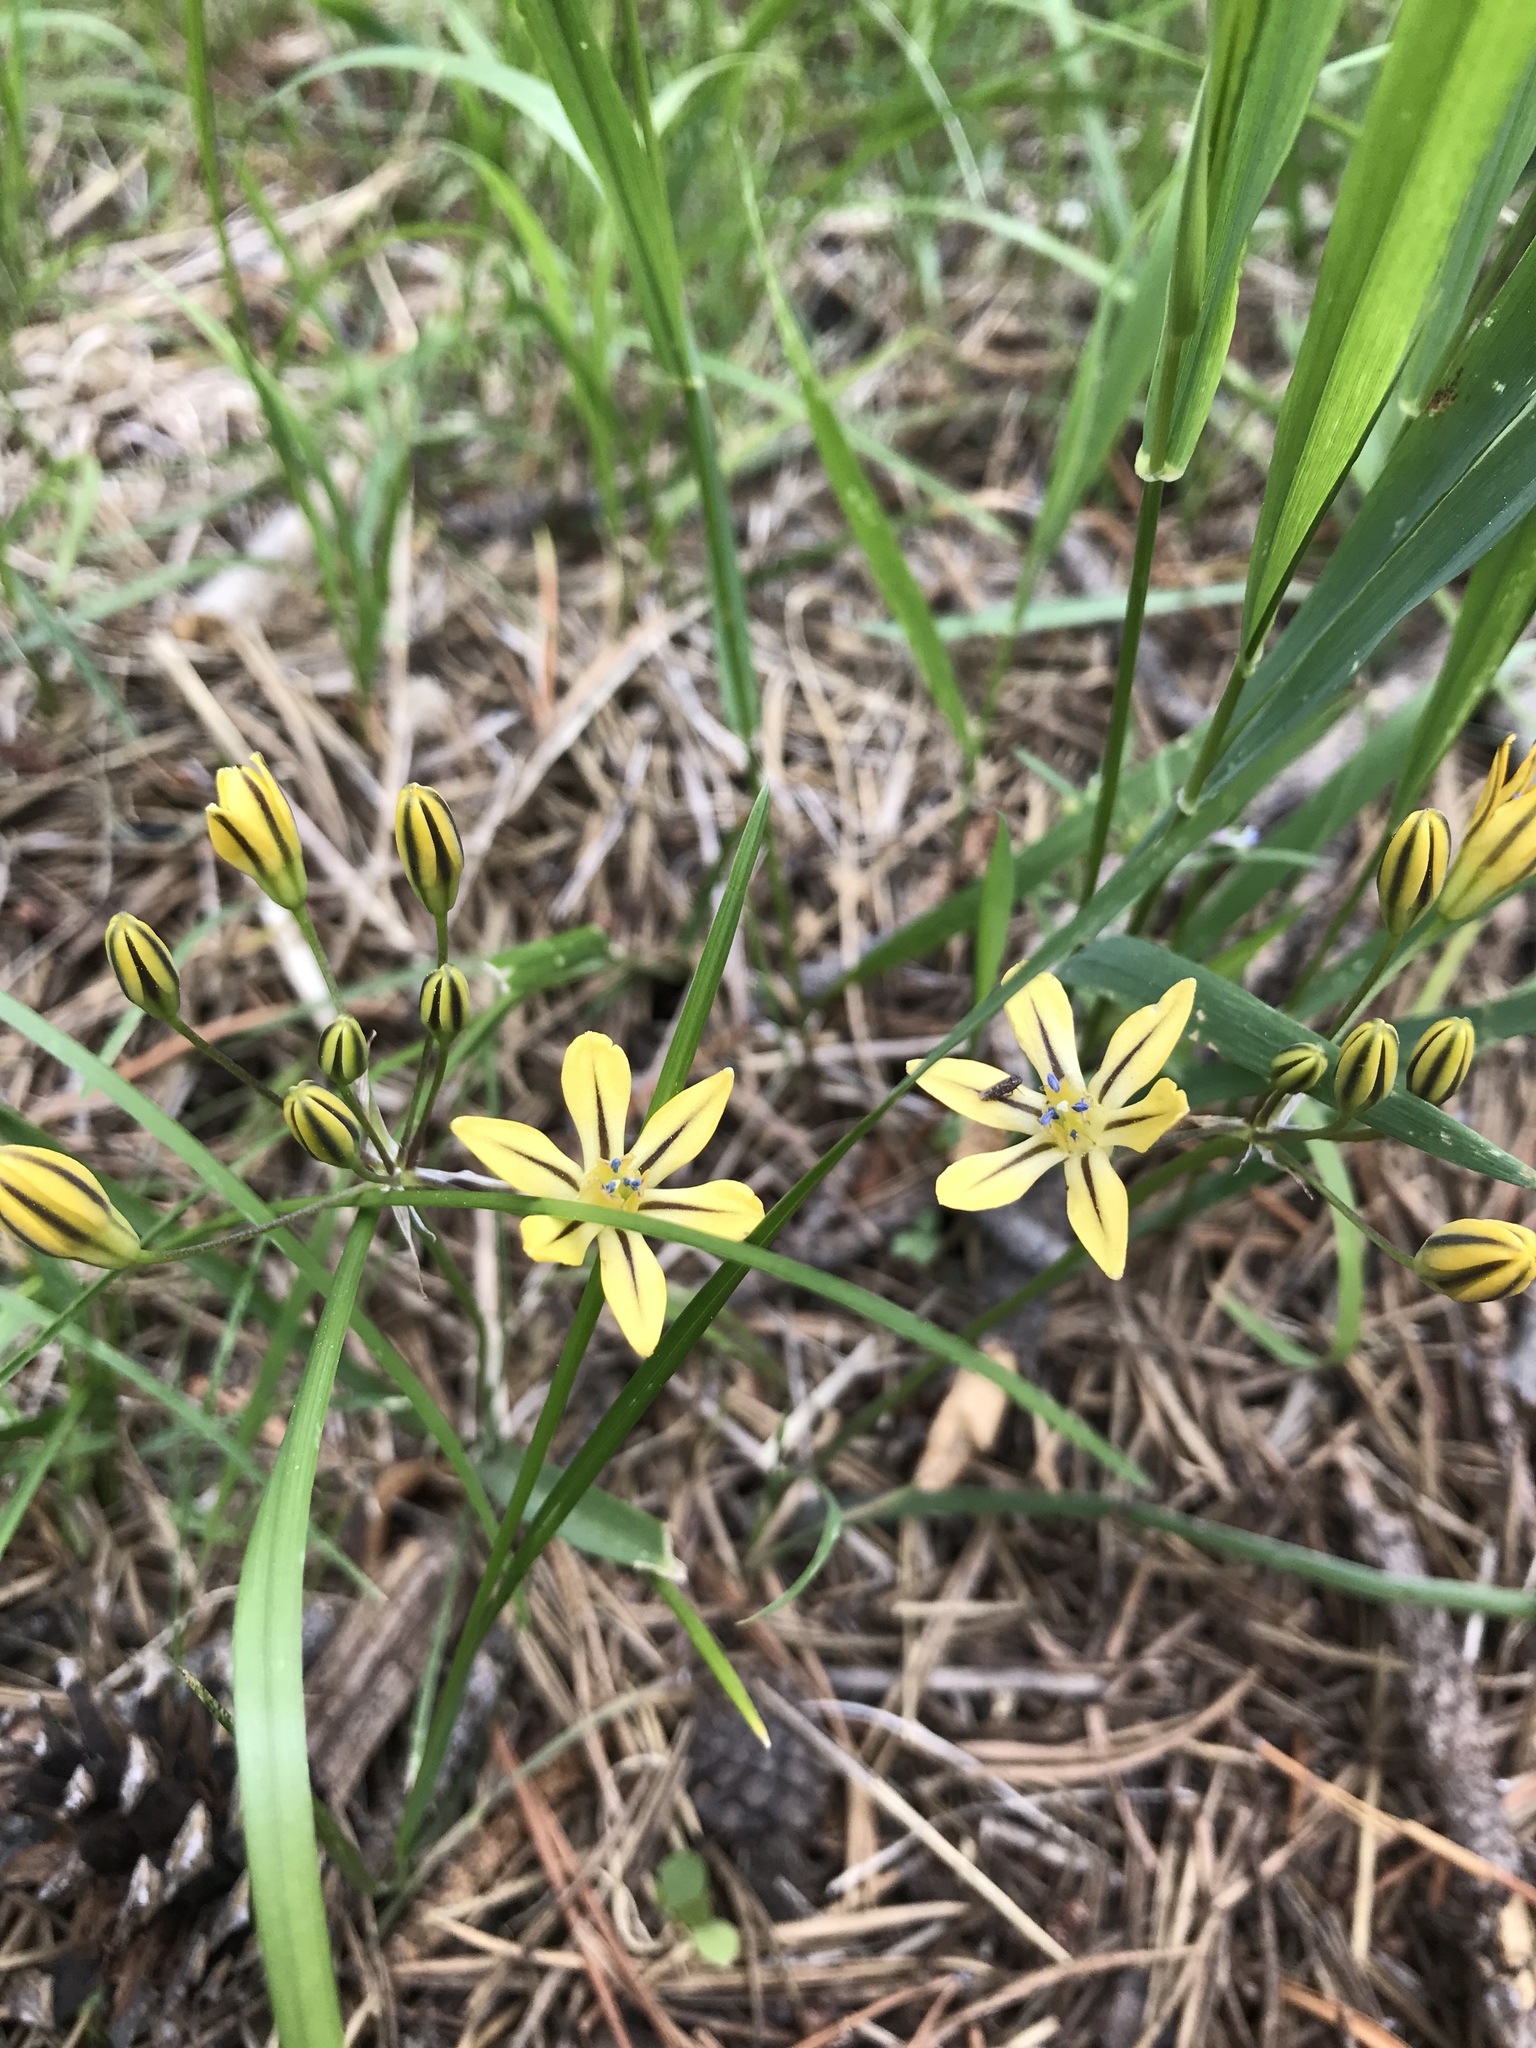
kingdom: Plantae
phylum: Tracheophyta
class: Liliopsida
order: Asparagales
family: Asparagaceae
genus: Triteleia
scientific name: Triteleia ixioides
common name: Yellow-brodiaea
